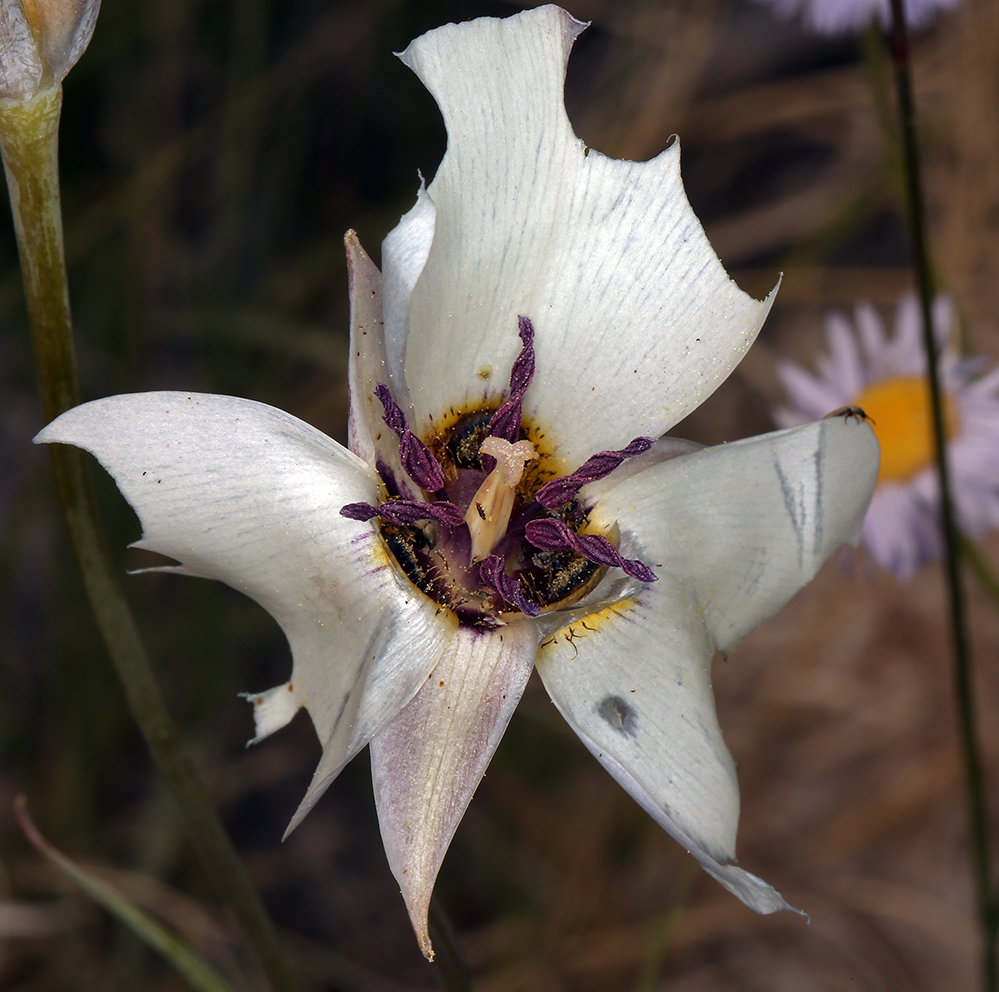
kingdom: Plantae
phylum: Tracheophyta
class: Liliopsida
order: Liliales
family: Liliaceae
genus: Calochortus
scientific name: Calochortus excavatus
